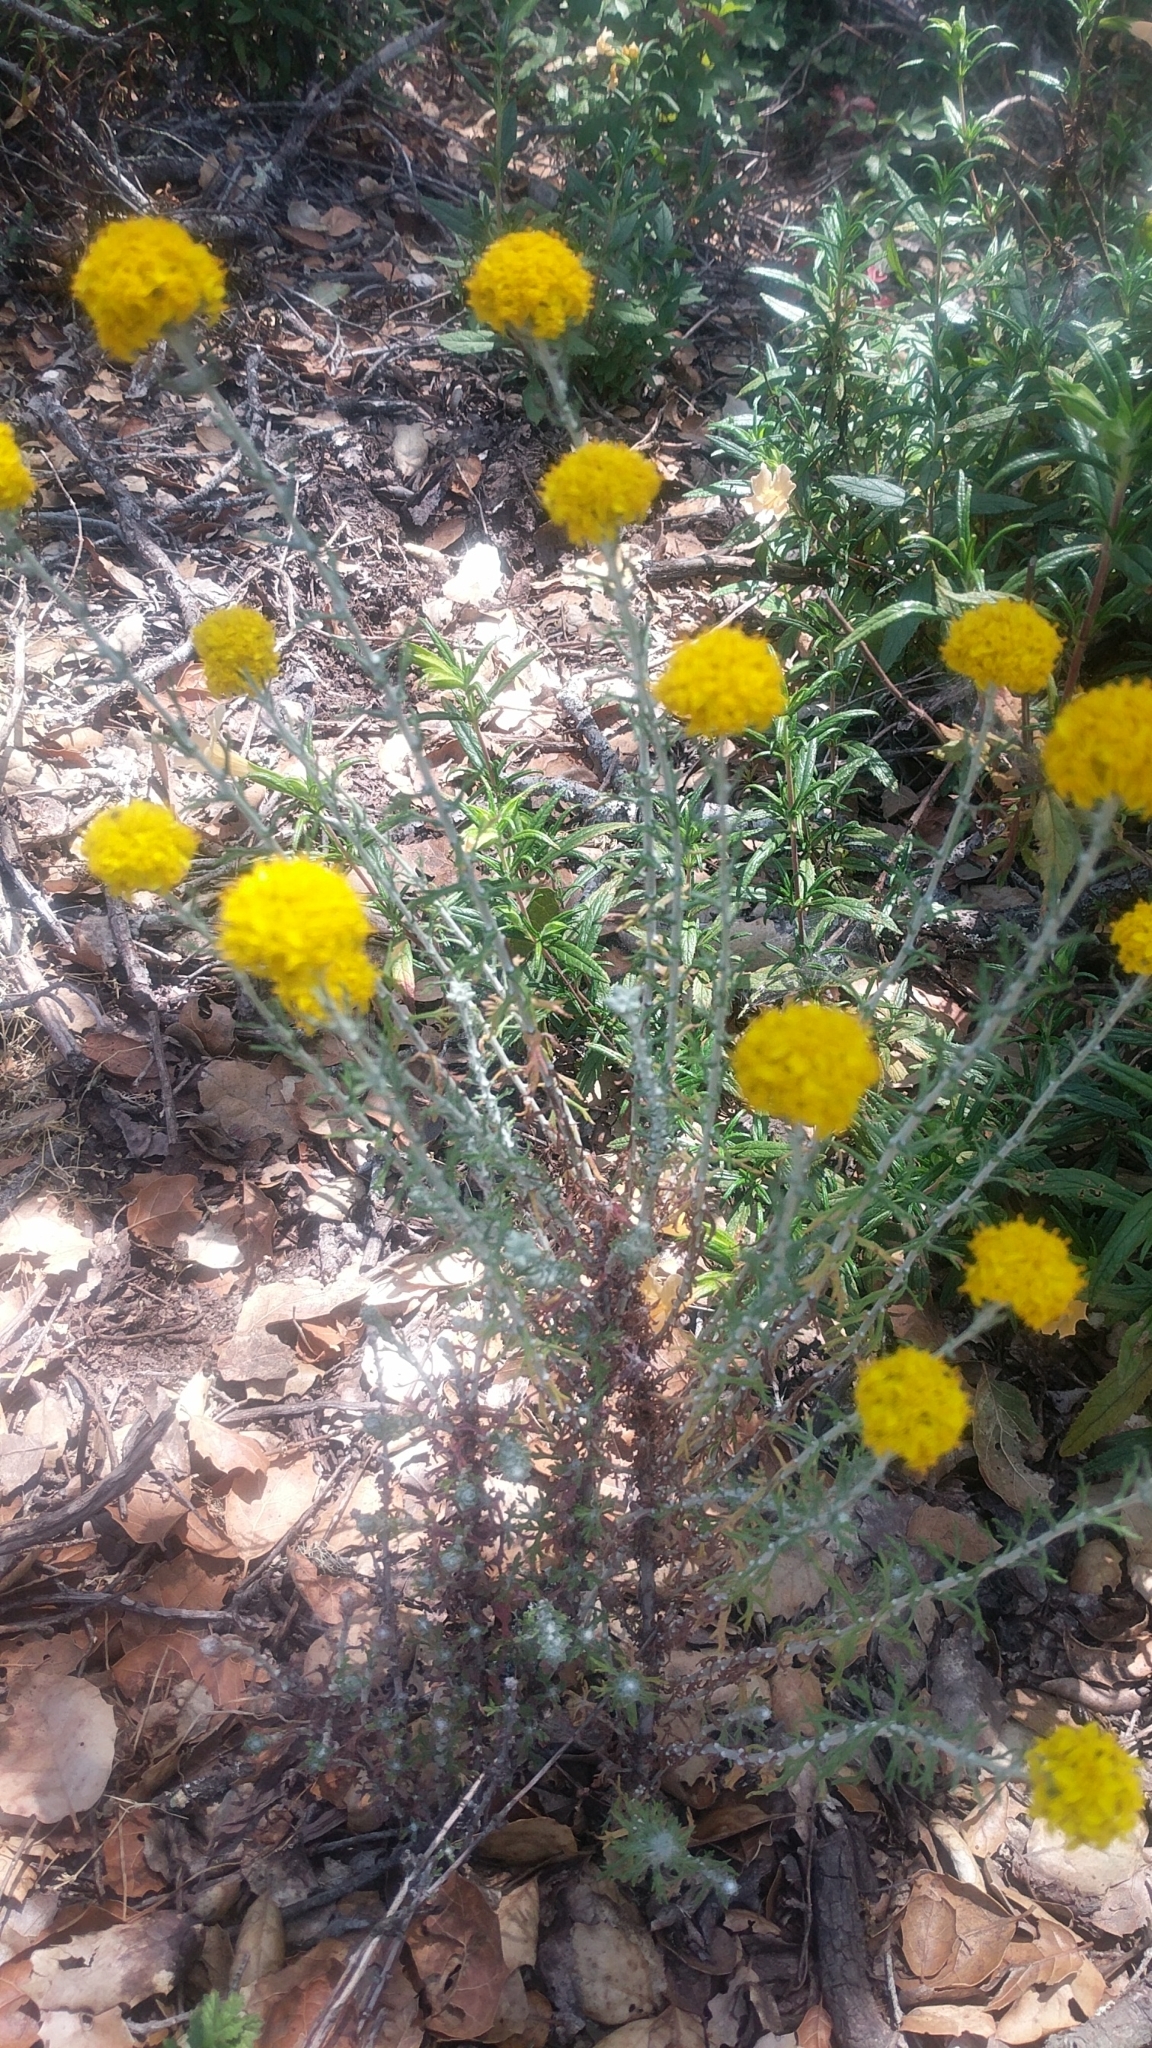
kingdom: Plantae
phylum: Tracheophyta
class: Magnoliopsida
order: Asterales
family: Asteraceae
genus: Eriophyllum
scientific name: Eriophyllum confertiflorum
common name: Golden-yarrow
